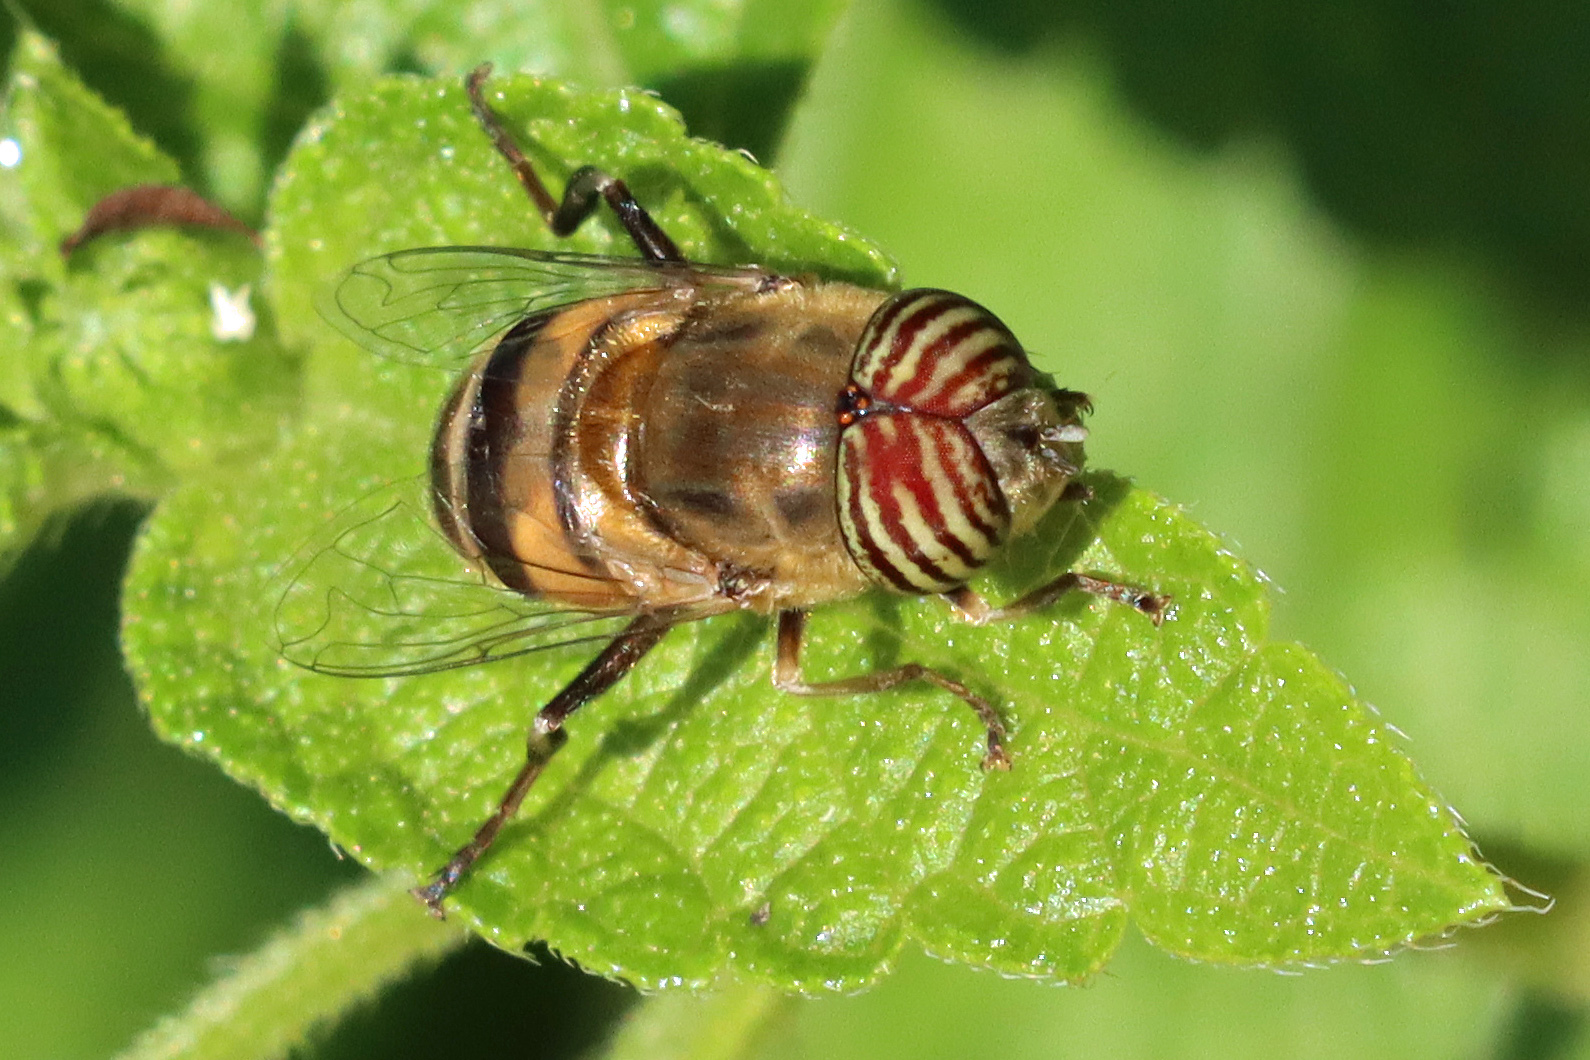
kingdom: Animalia
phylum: Arthropoda
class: Insecta
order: Diptera
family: Syrphidae
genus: Eristalinus
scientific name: Eristalinus taeniops
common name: Syrphid fly
